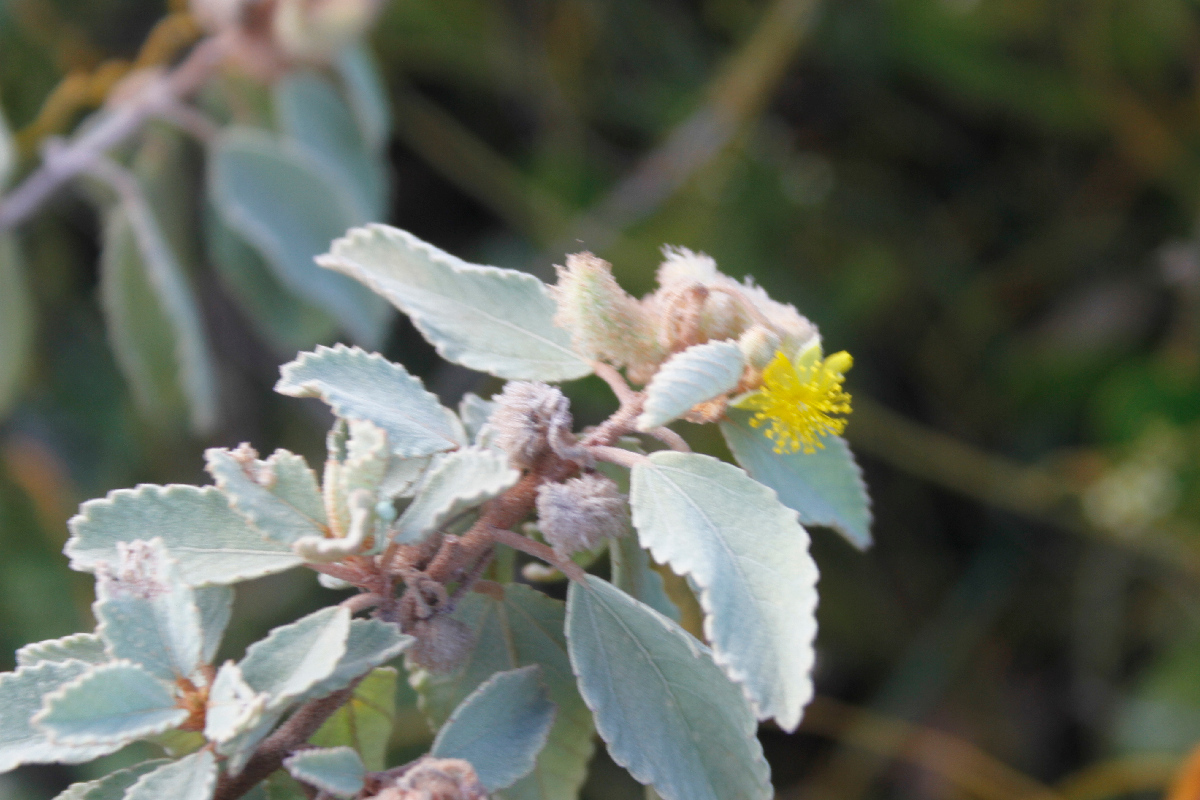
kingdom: Plantae
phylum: Tracheophyta
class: Magnoliopsida
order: Malvales
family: Malvaceae
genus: Corchorus
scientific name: Corchorus hirsutus
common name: Jackswitch
